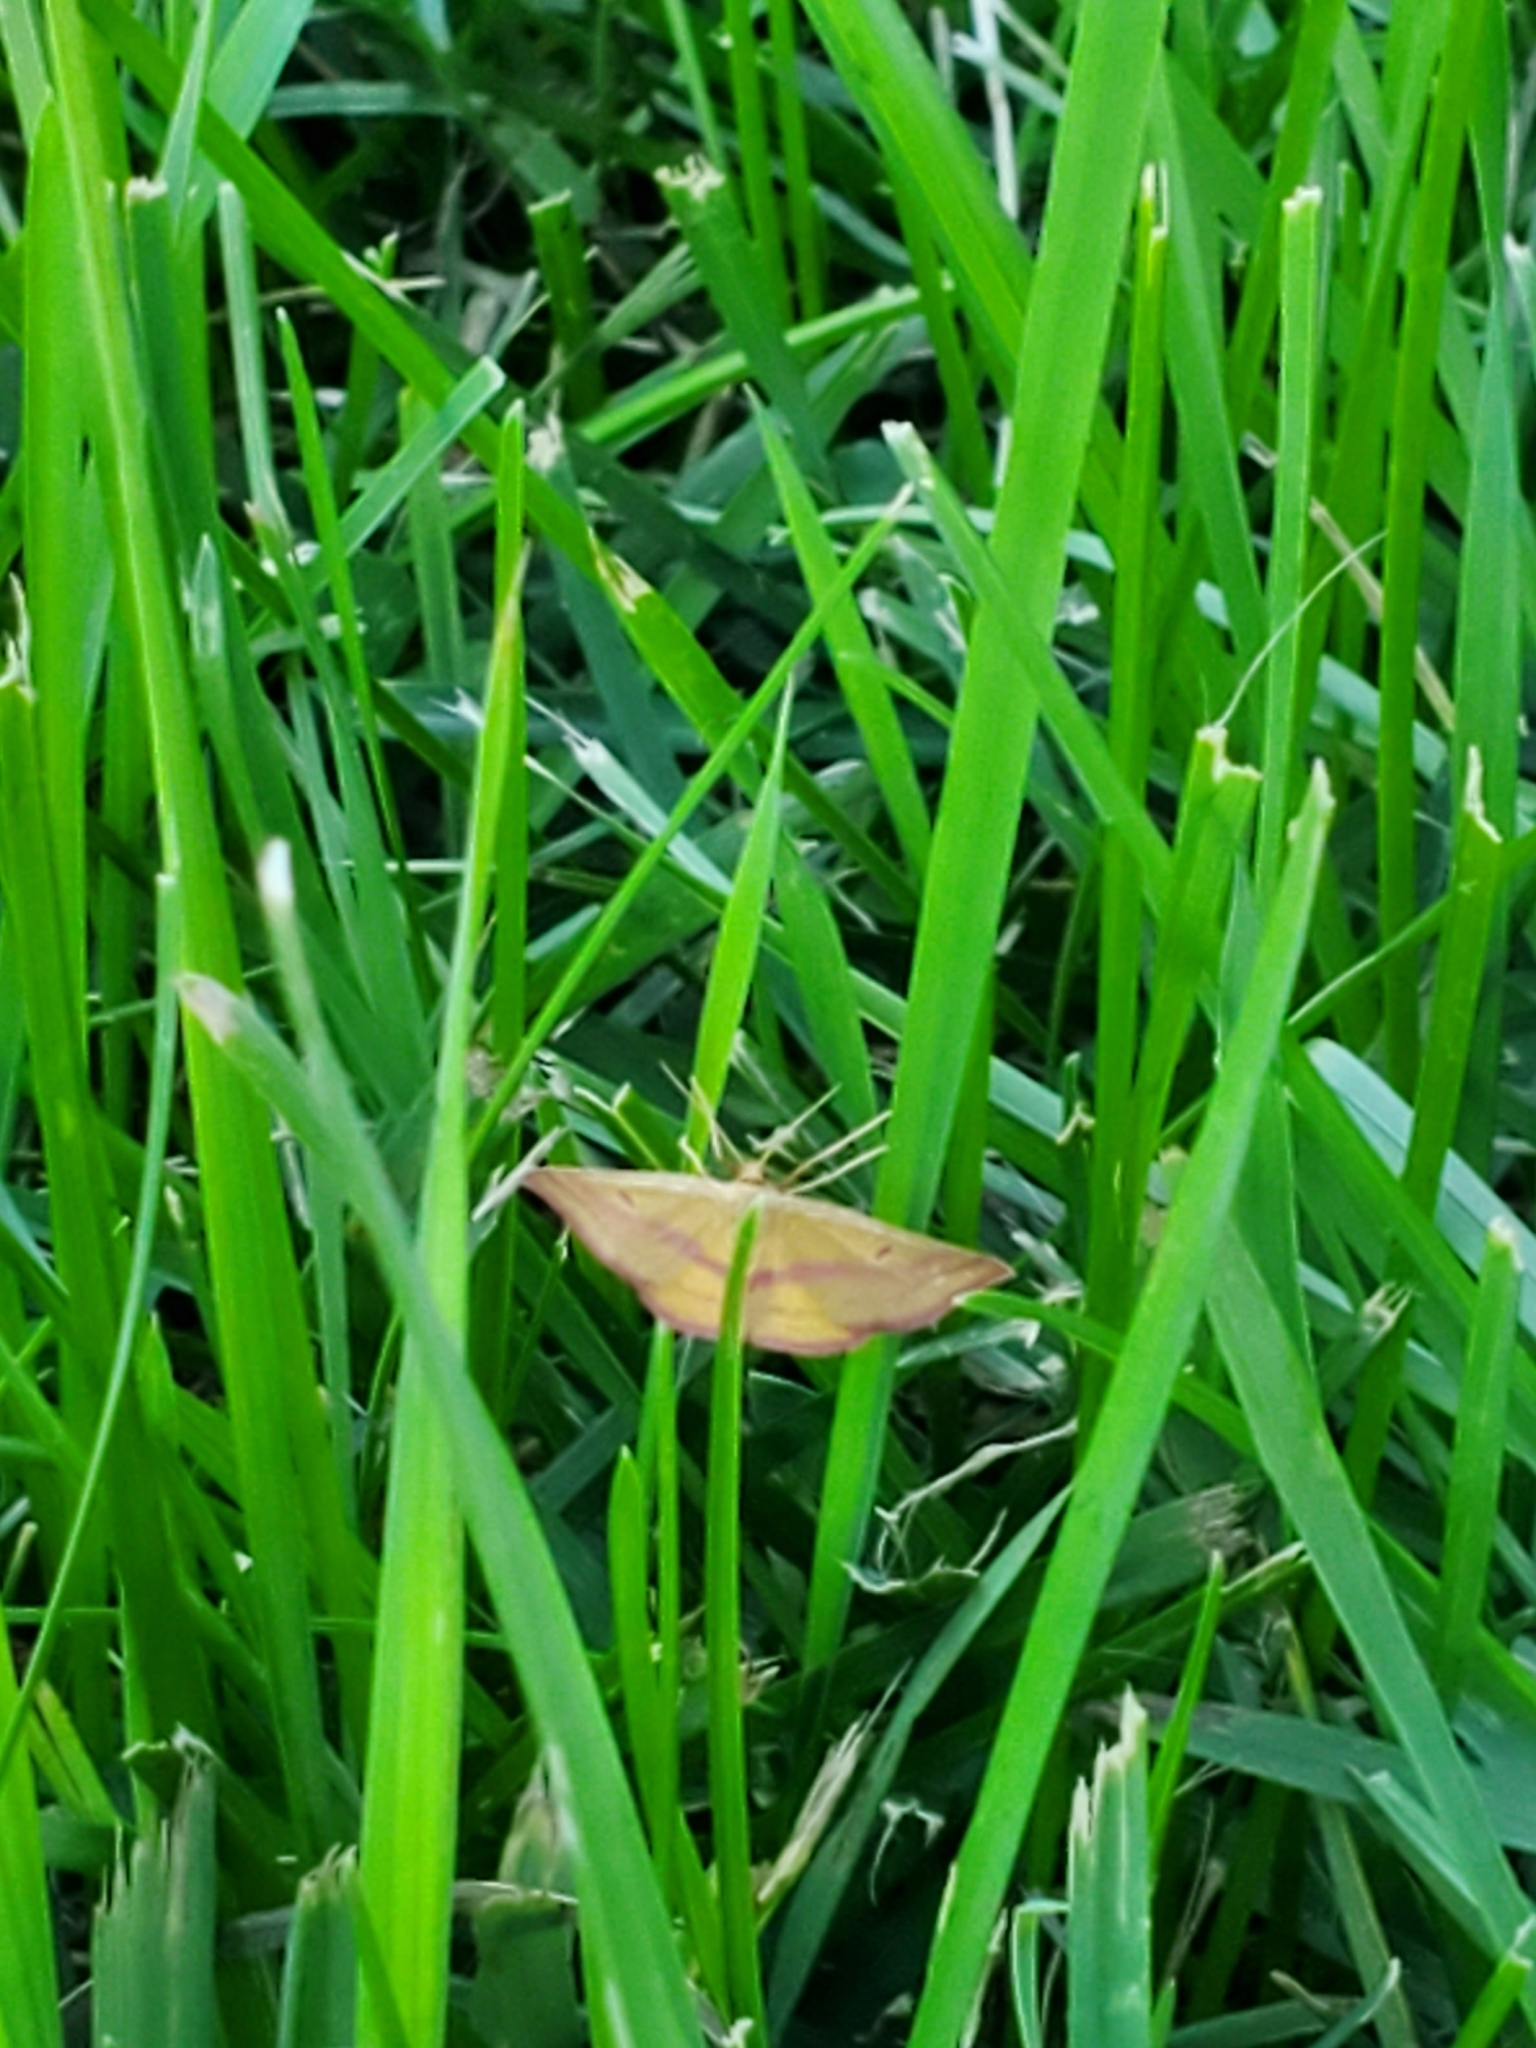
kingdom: Animalia
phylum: Arthropoda
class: Insecta
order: Lepidoptera
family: Geometridae
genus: Haematopis
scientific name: Haematopis grataria
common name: Chickweed geometer
